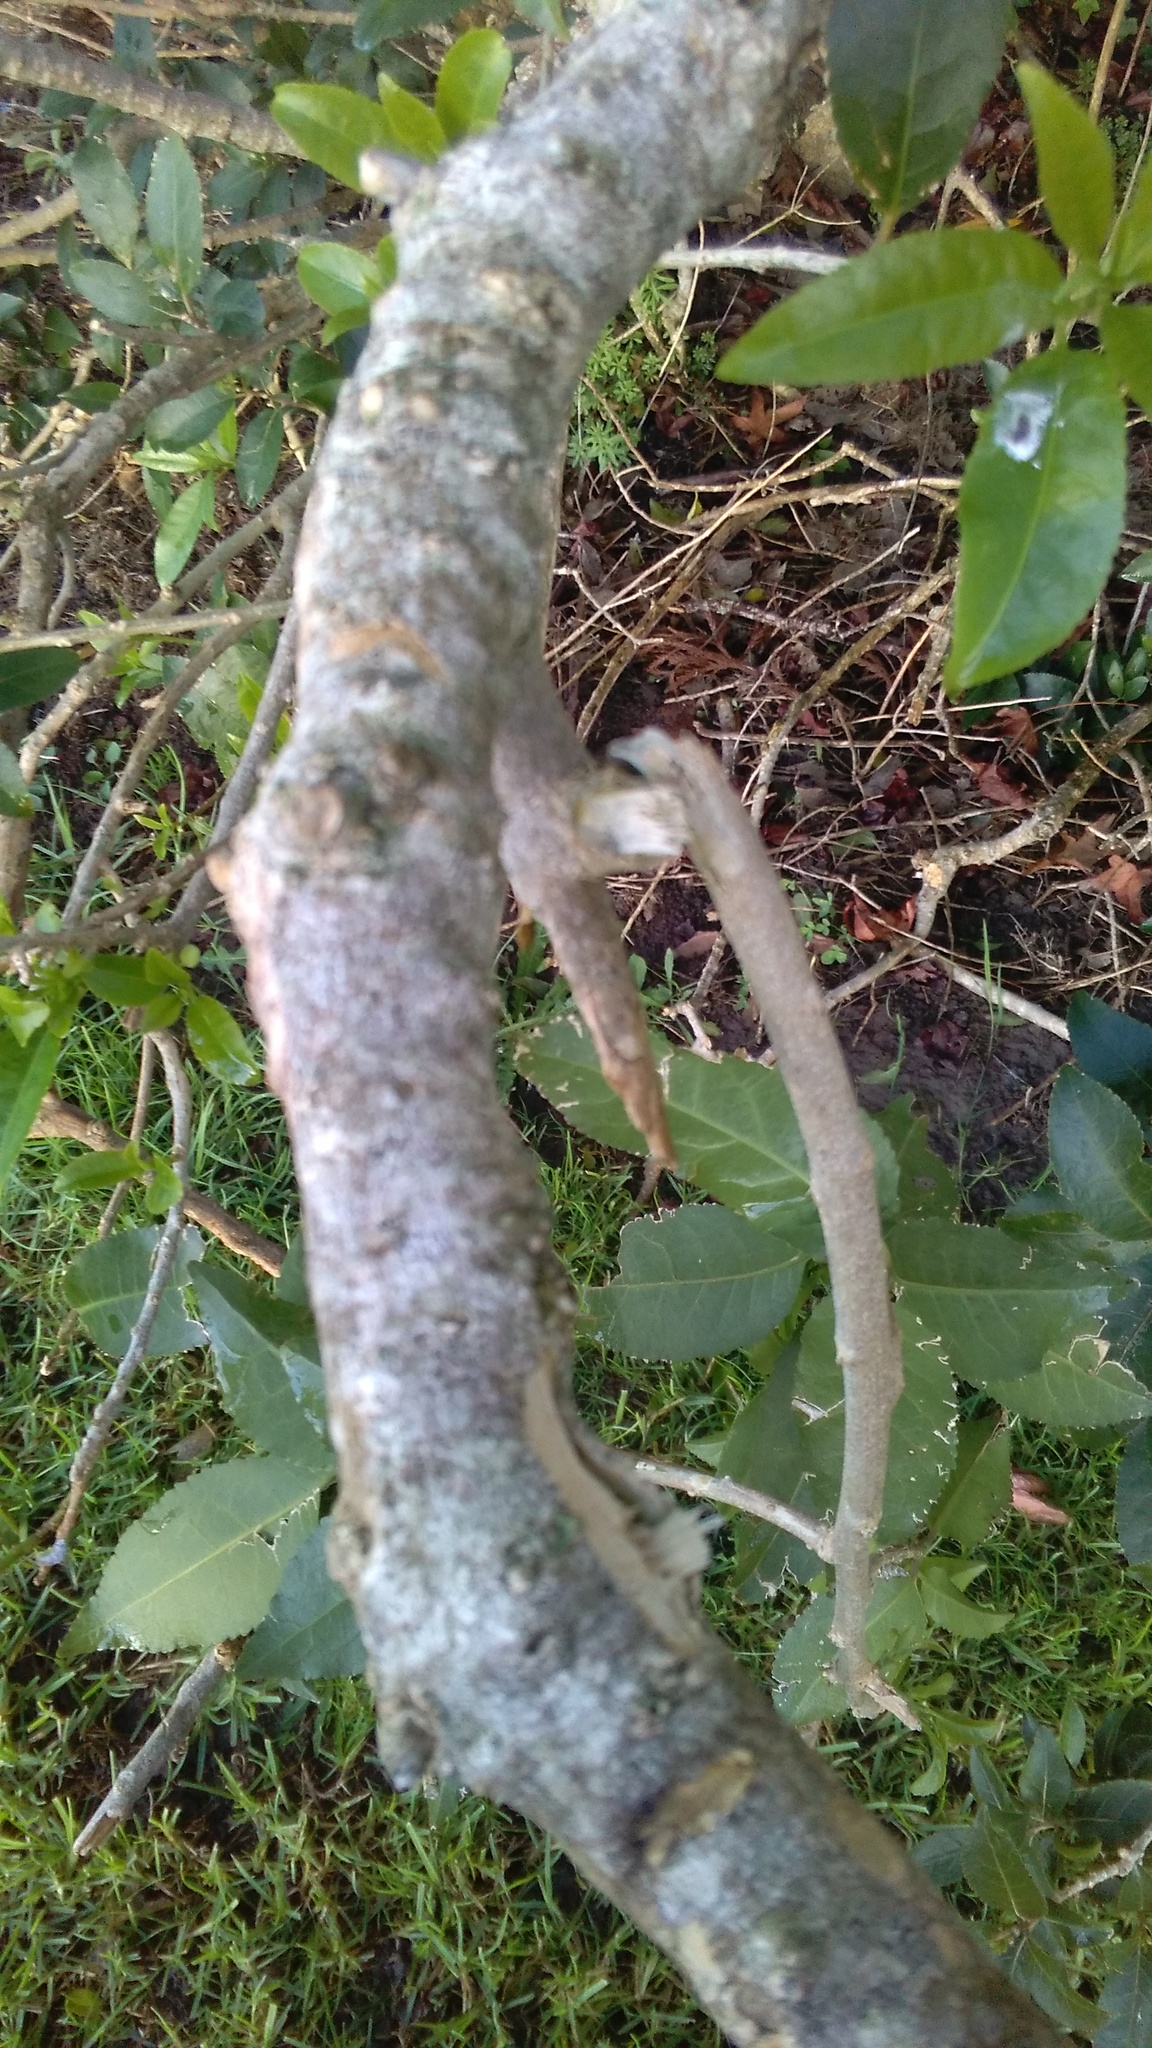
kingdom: Plantae
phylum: Tracheophyta
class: Magnoliopsida
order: Malpighiales
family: Violaceae
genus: Melicytus
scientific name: Melicytus ramiflorus
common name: Mahoe
